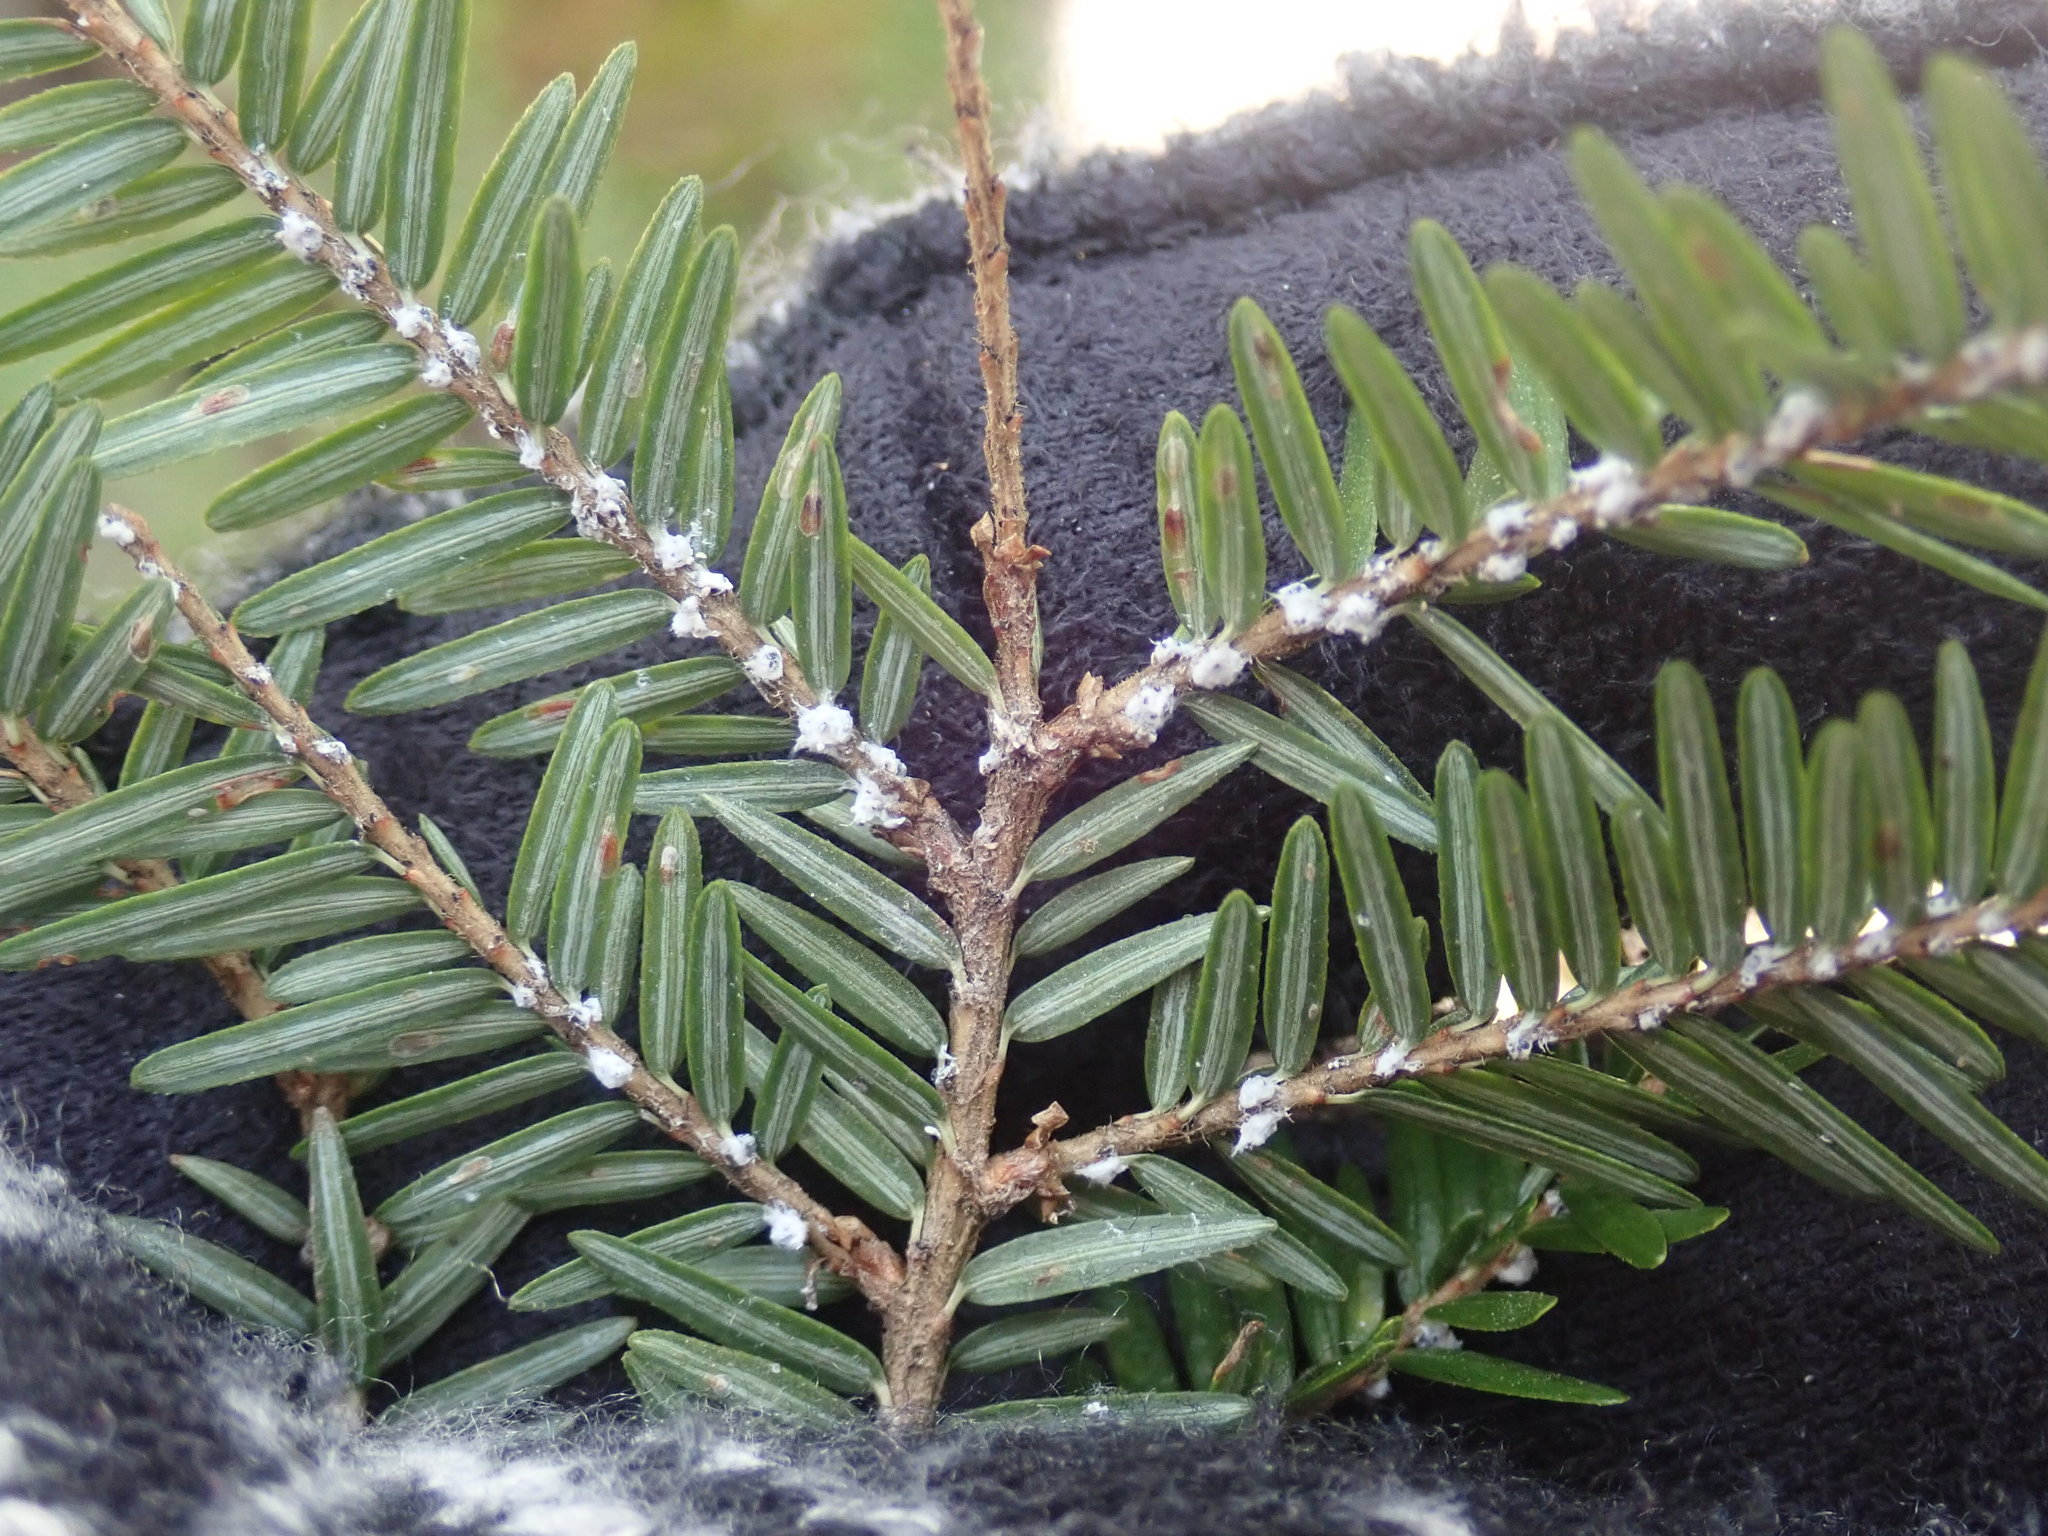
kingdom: Animalia
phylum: Arthropoda
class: Insecta
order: Hemiptera
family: Adelgidae
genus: Adelges
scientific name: Adelges tsugae
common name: Hemlock woolly adelgid
